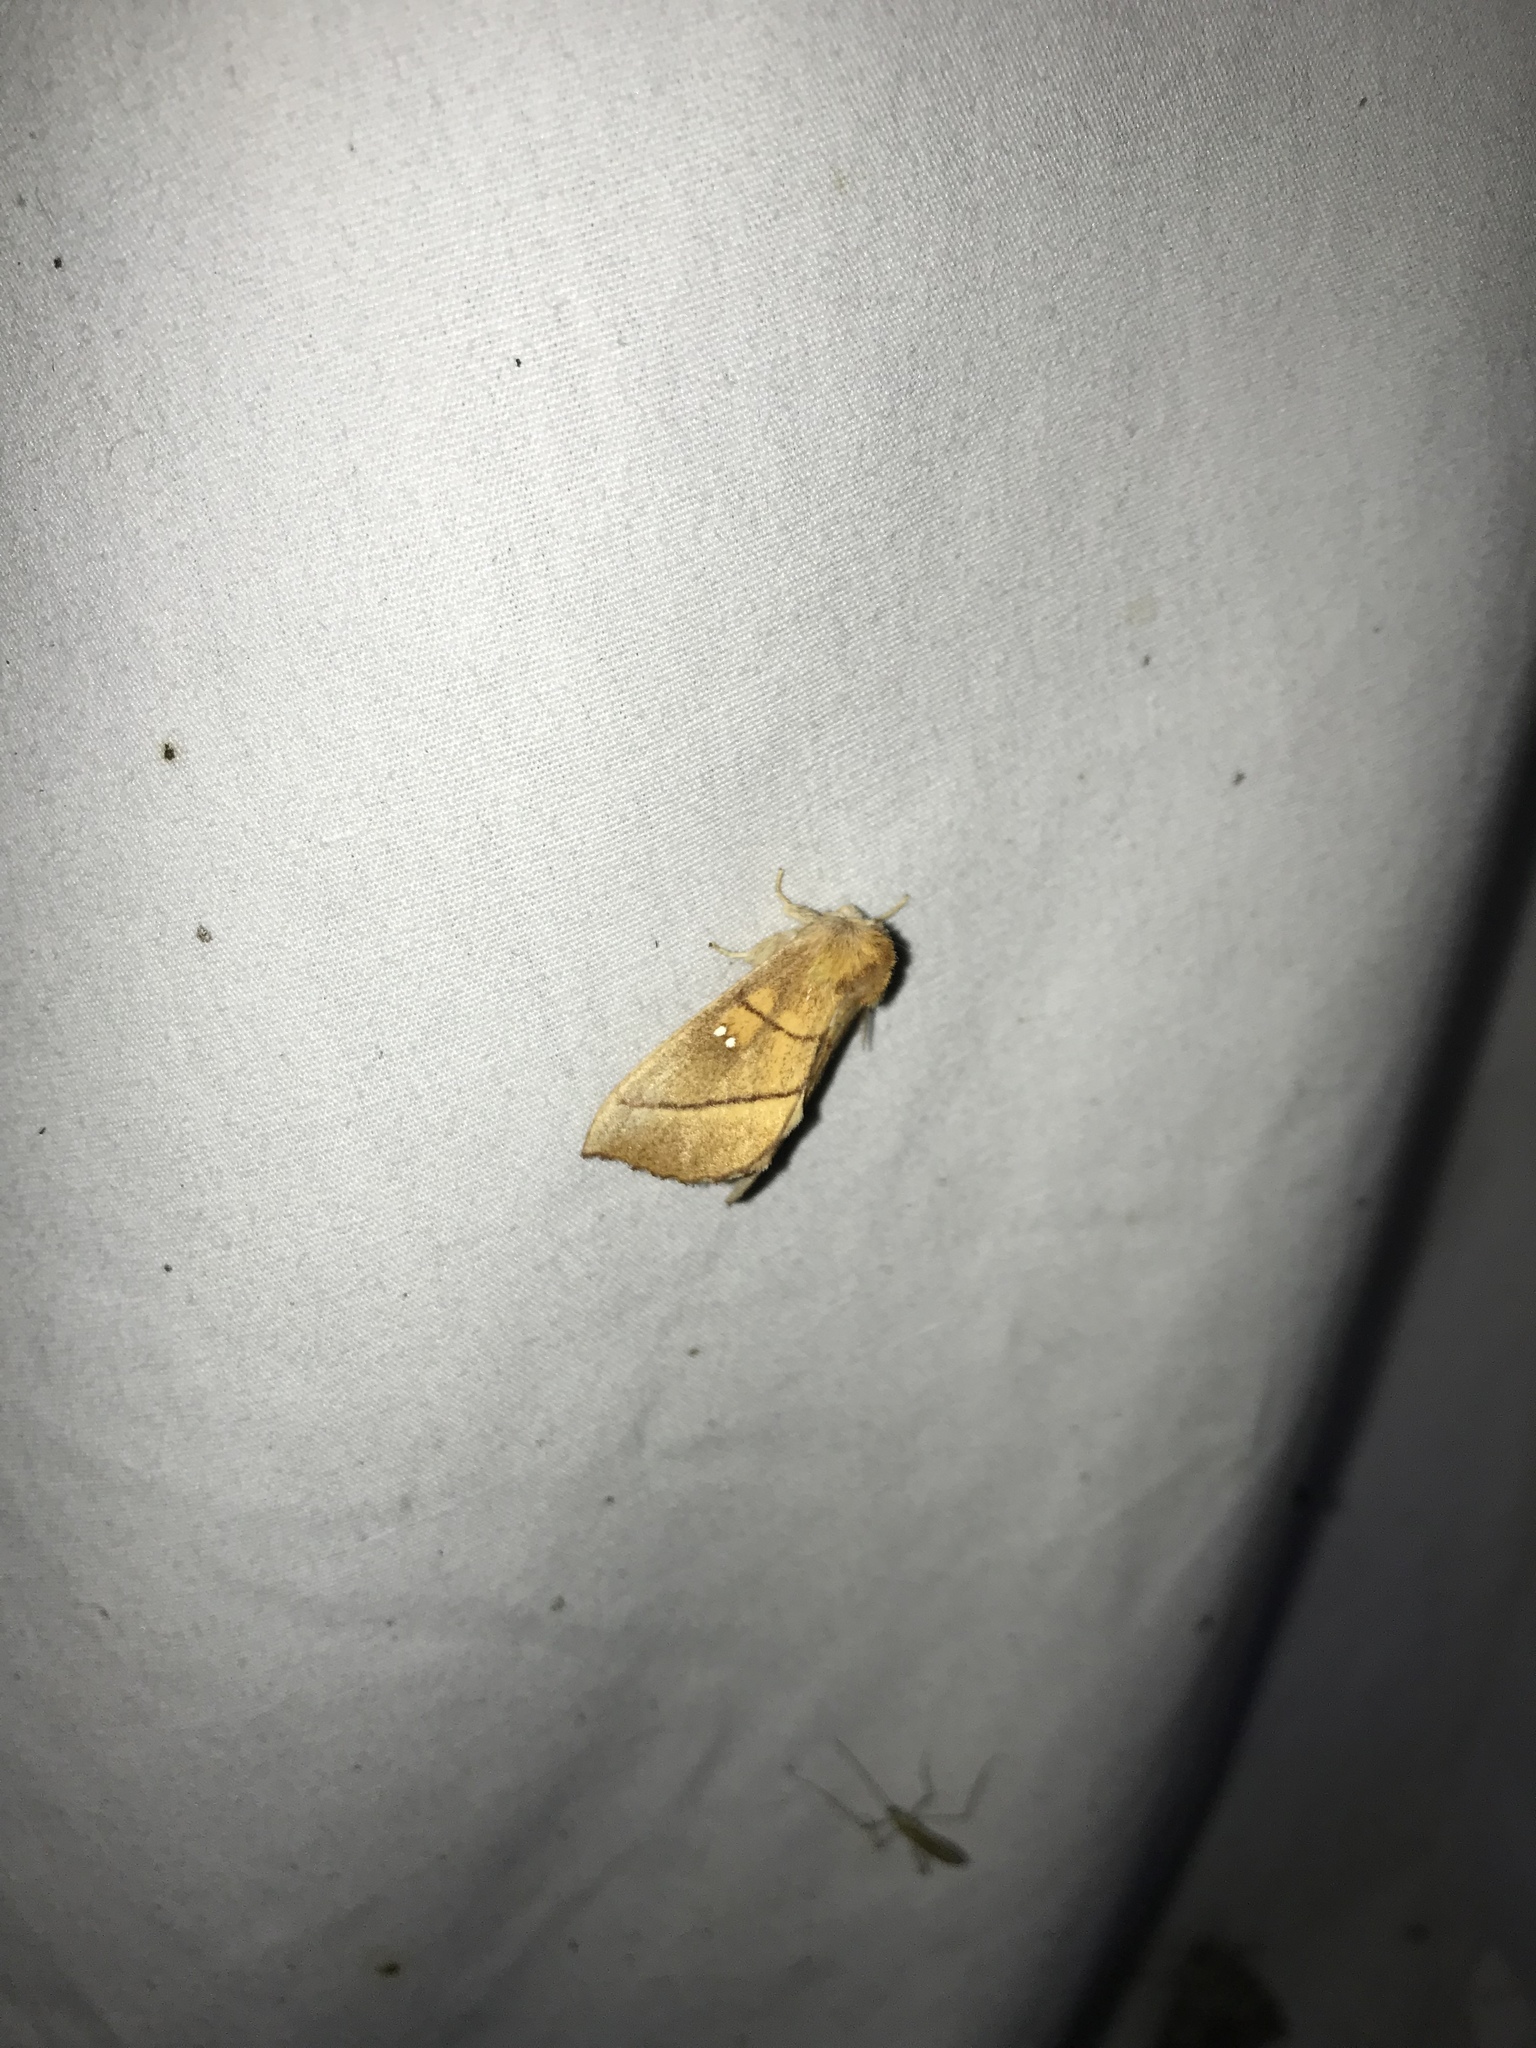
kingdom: Animalia
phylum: Arthropoda
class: Insecta
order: Lepidoptera
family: Notodontidae
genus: Nadata
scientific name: Nadata gibbosa
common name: White-dotted prominent
